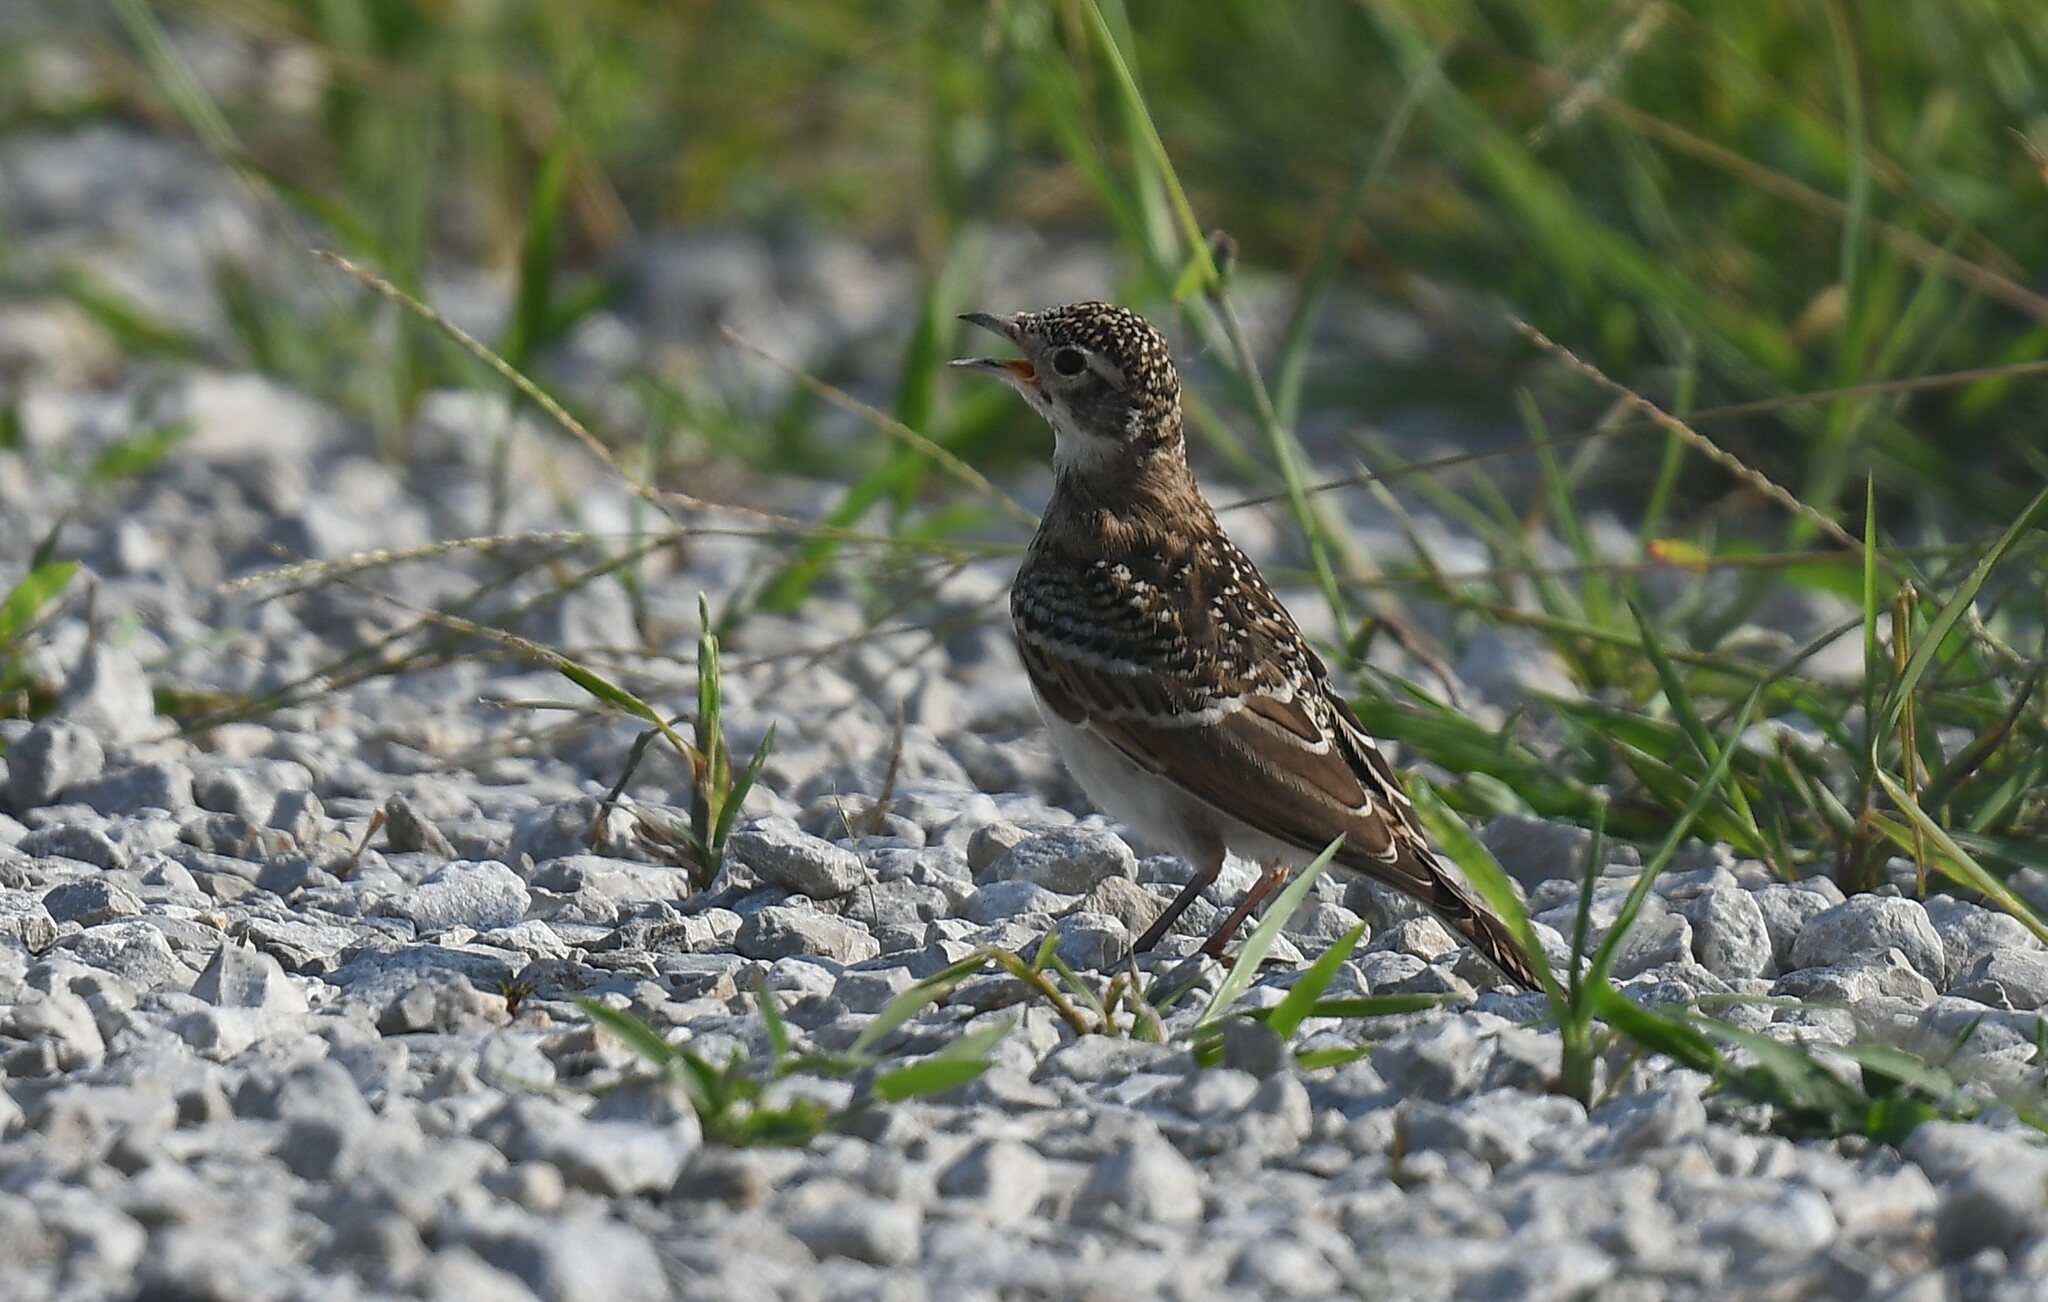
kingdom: Animalia
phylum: Chordata
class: Aves
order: Passeriformes
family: Alaudidae
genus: Eremophila
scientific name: Eremophila alpestris
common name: Horned lark
